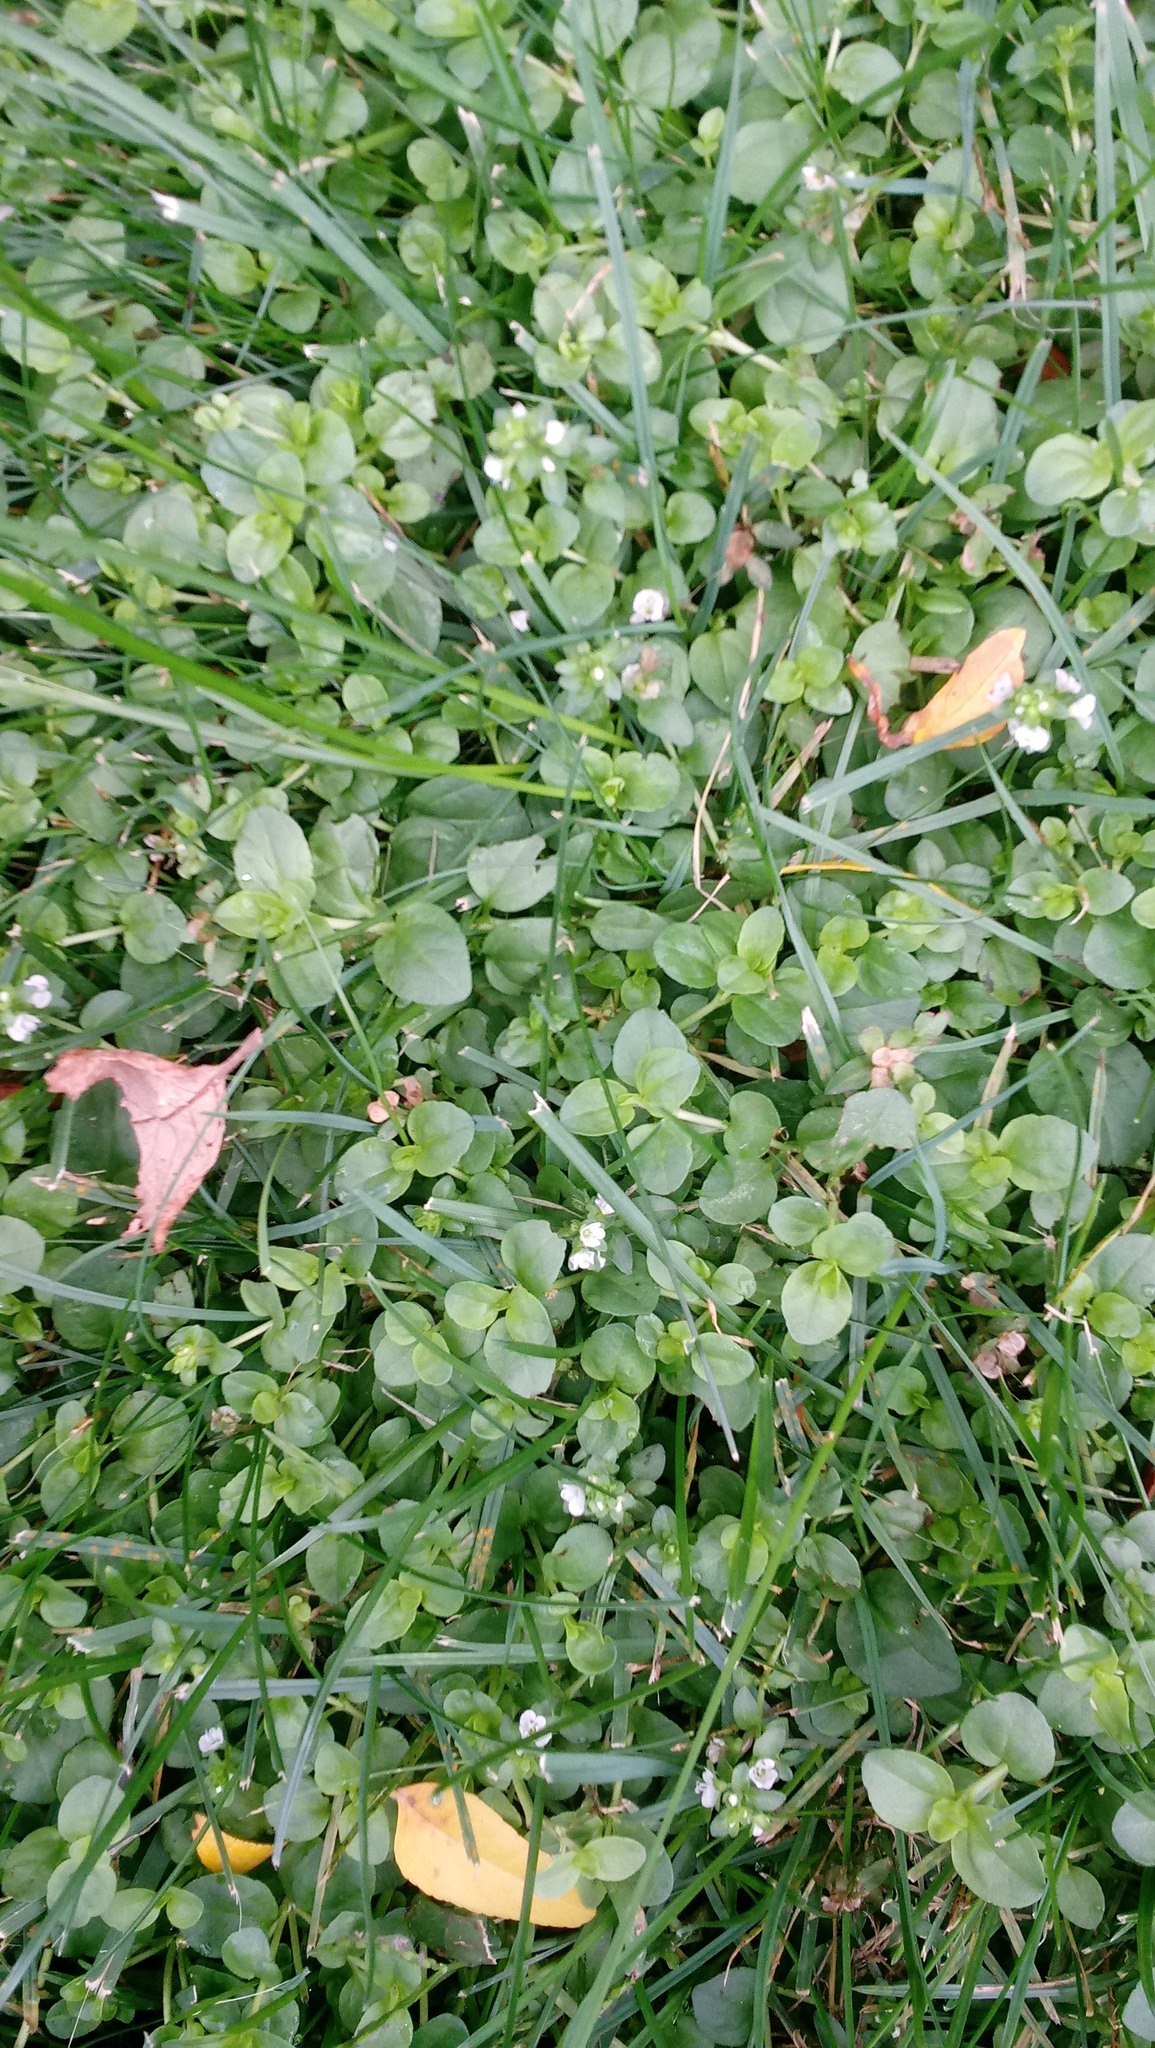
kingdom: Plantae
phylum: Tracheophyta
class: Magnoliopsida
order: Lamiales
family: Plantaginaceae
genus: Veronica
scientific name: Veronica serpyllifolia
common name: Thyme-leaved speedwell
